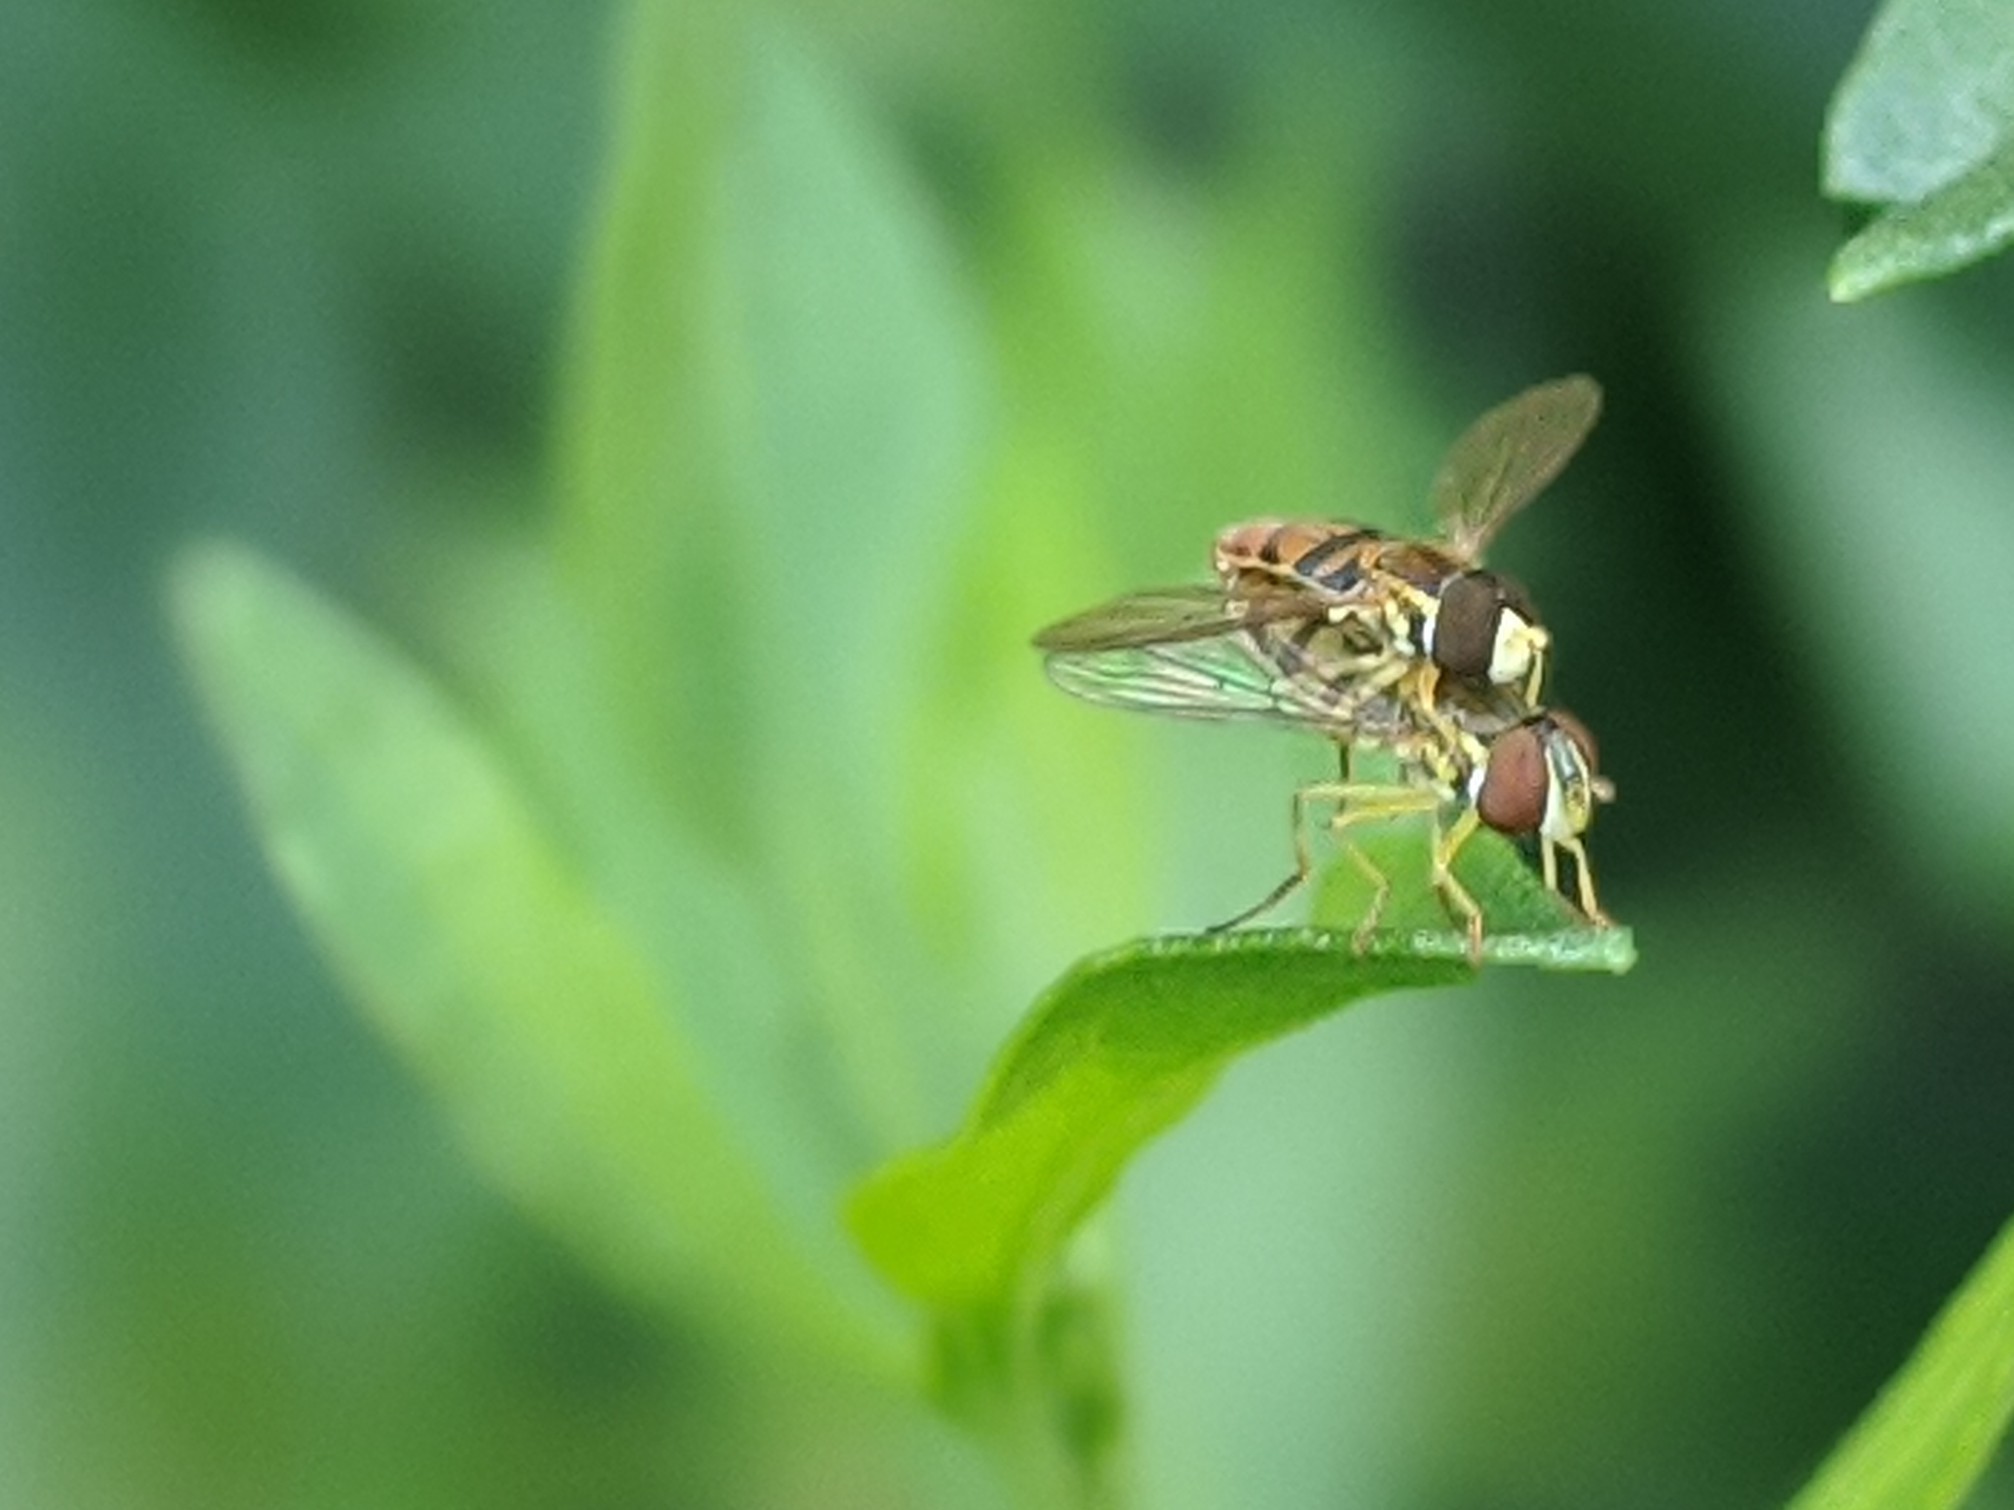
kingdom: Animalia
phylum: Arthropoda
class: Insecta
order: Diptera
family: Syrphidae
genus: Toxomerus
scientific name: Toxomerus marginatus
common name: Syrphid fly
